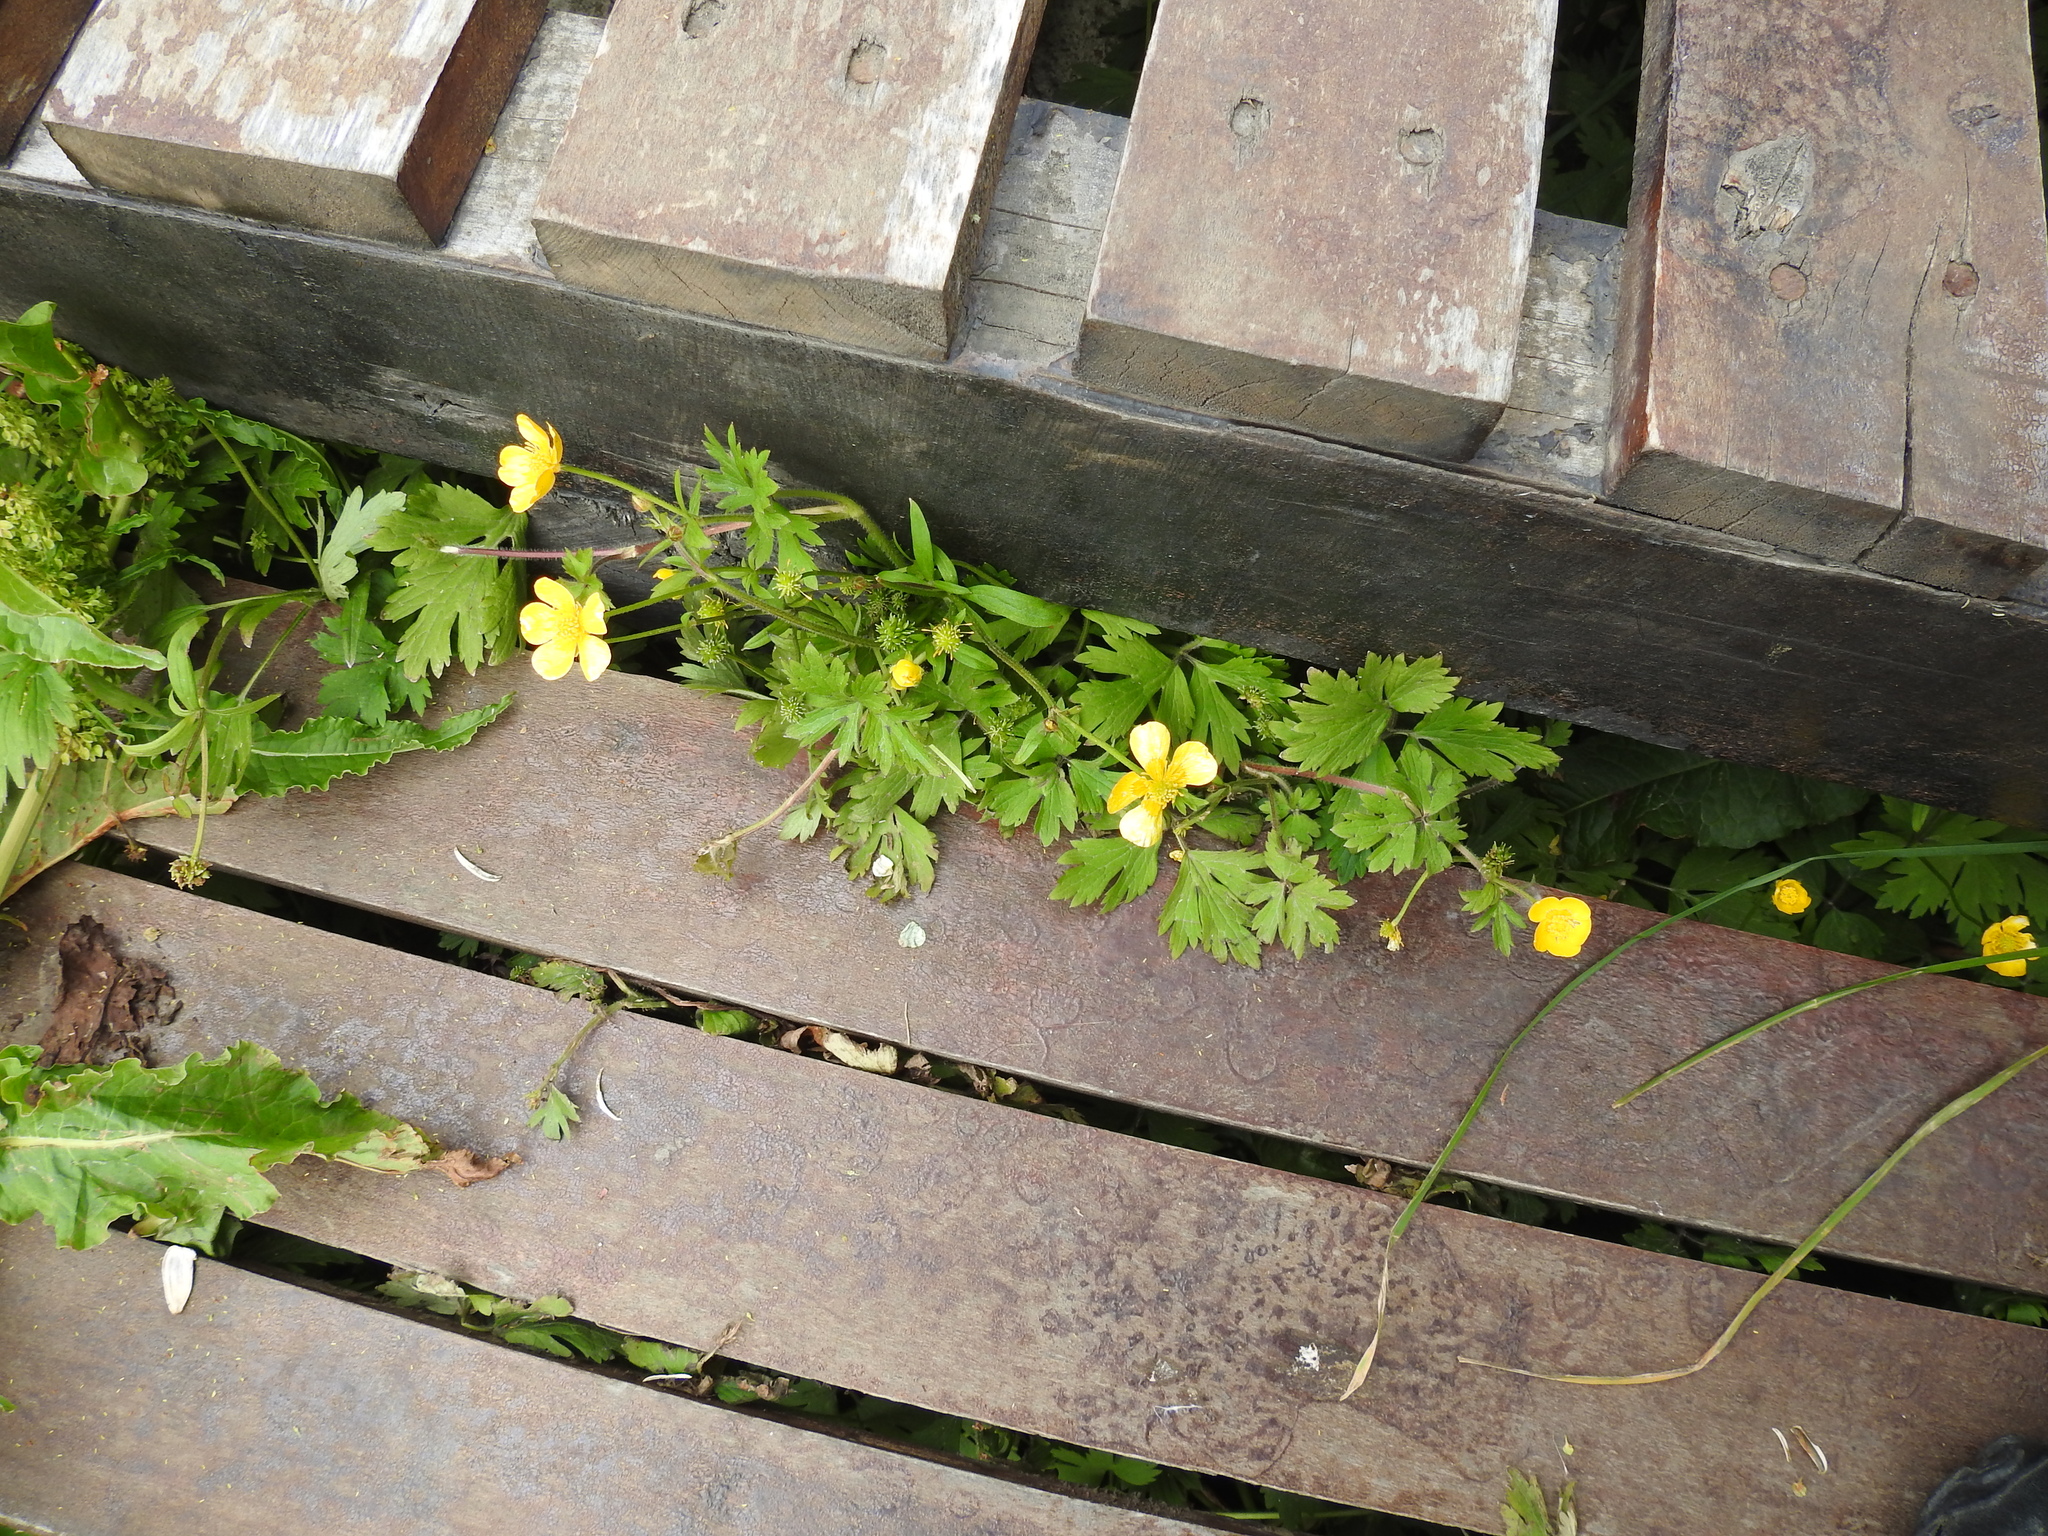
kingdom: Plantae
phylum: Tracheophyta
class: Magnoliopsida
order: Ranunculales
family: Ranunculaceae
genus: Ranunculus
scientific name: Ranunculus repens
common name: Creeping buttercup
